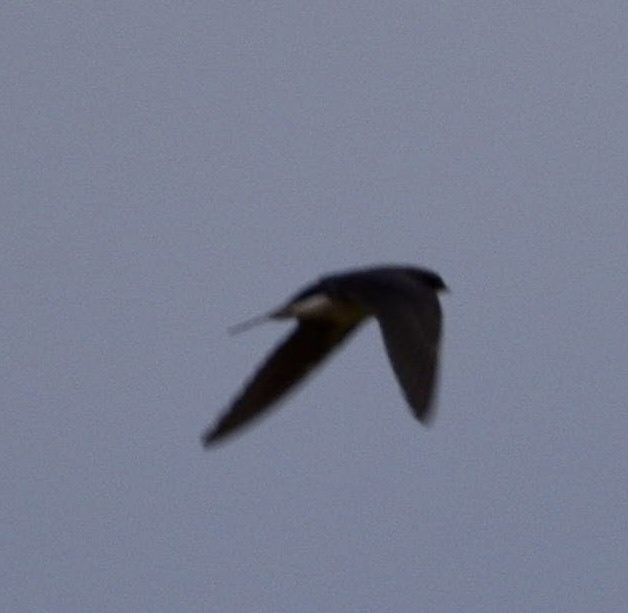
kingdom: Animalia
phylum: Chordata
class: Aves
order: Passeriformes
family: Hirundinidae
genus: Hirundo
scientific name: Hirundo rustica
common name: Barn swallow
